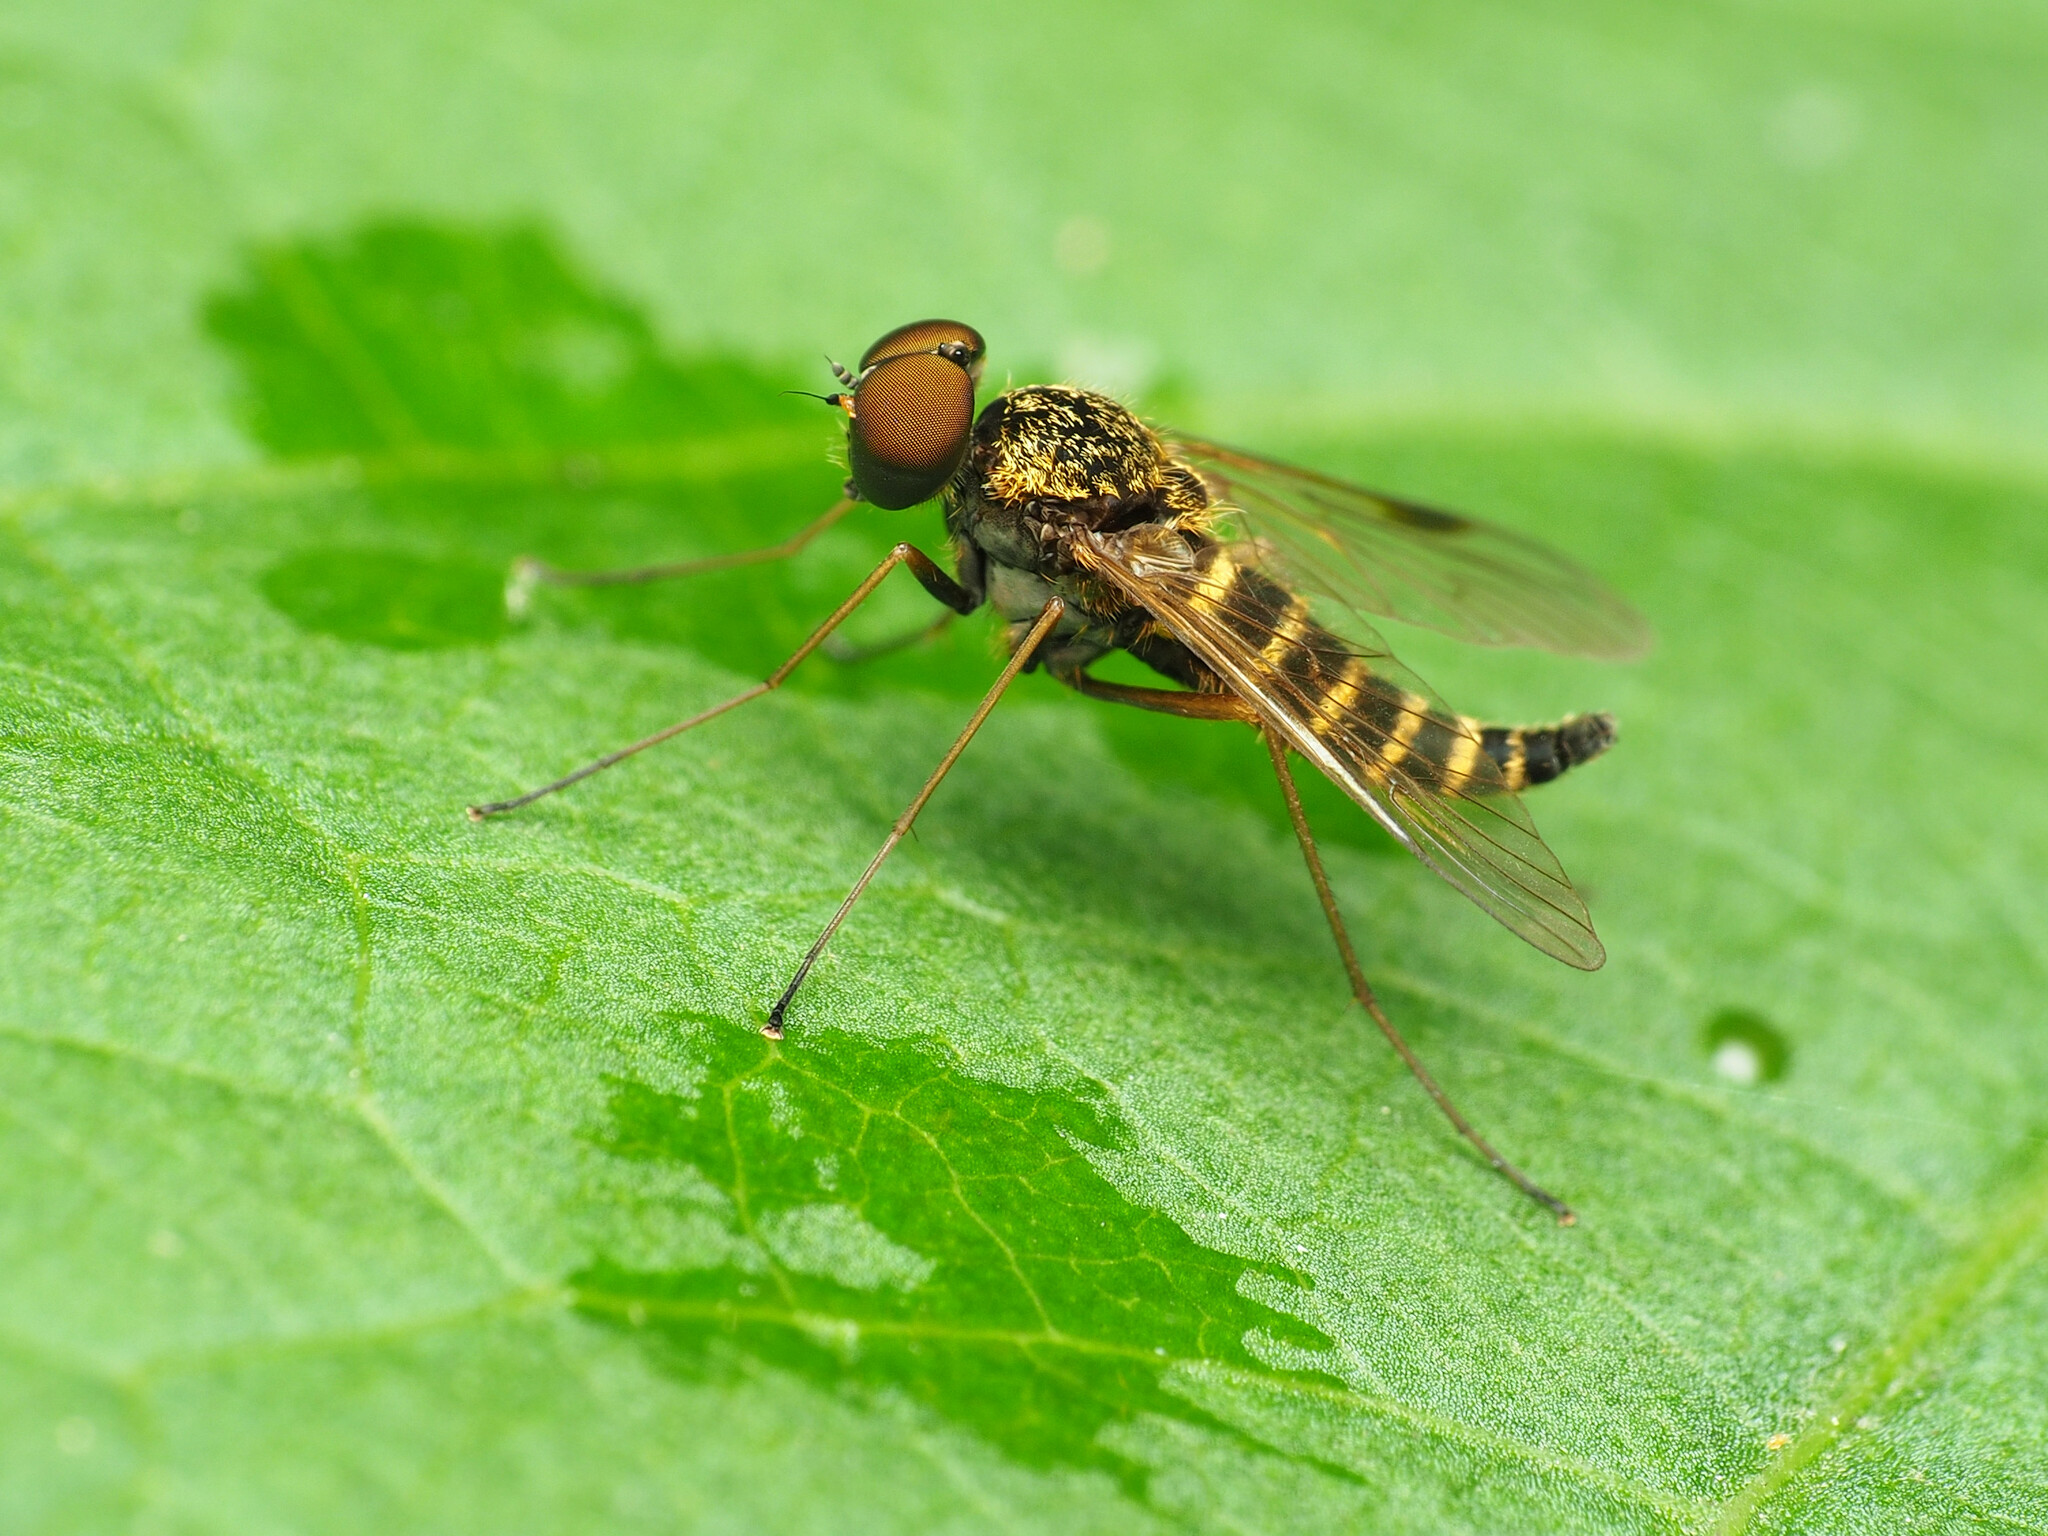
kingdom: Animalia
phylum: Arthropoda
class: Insecta
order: Diptera
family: Rhagionidae
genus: Chrysopilus
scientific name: Chrysopilus fasciatus
